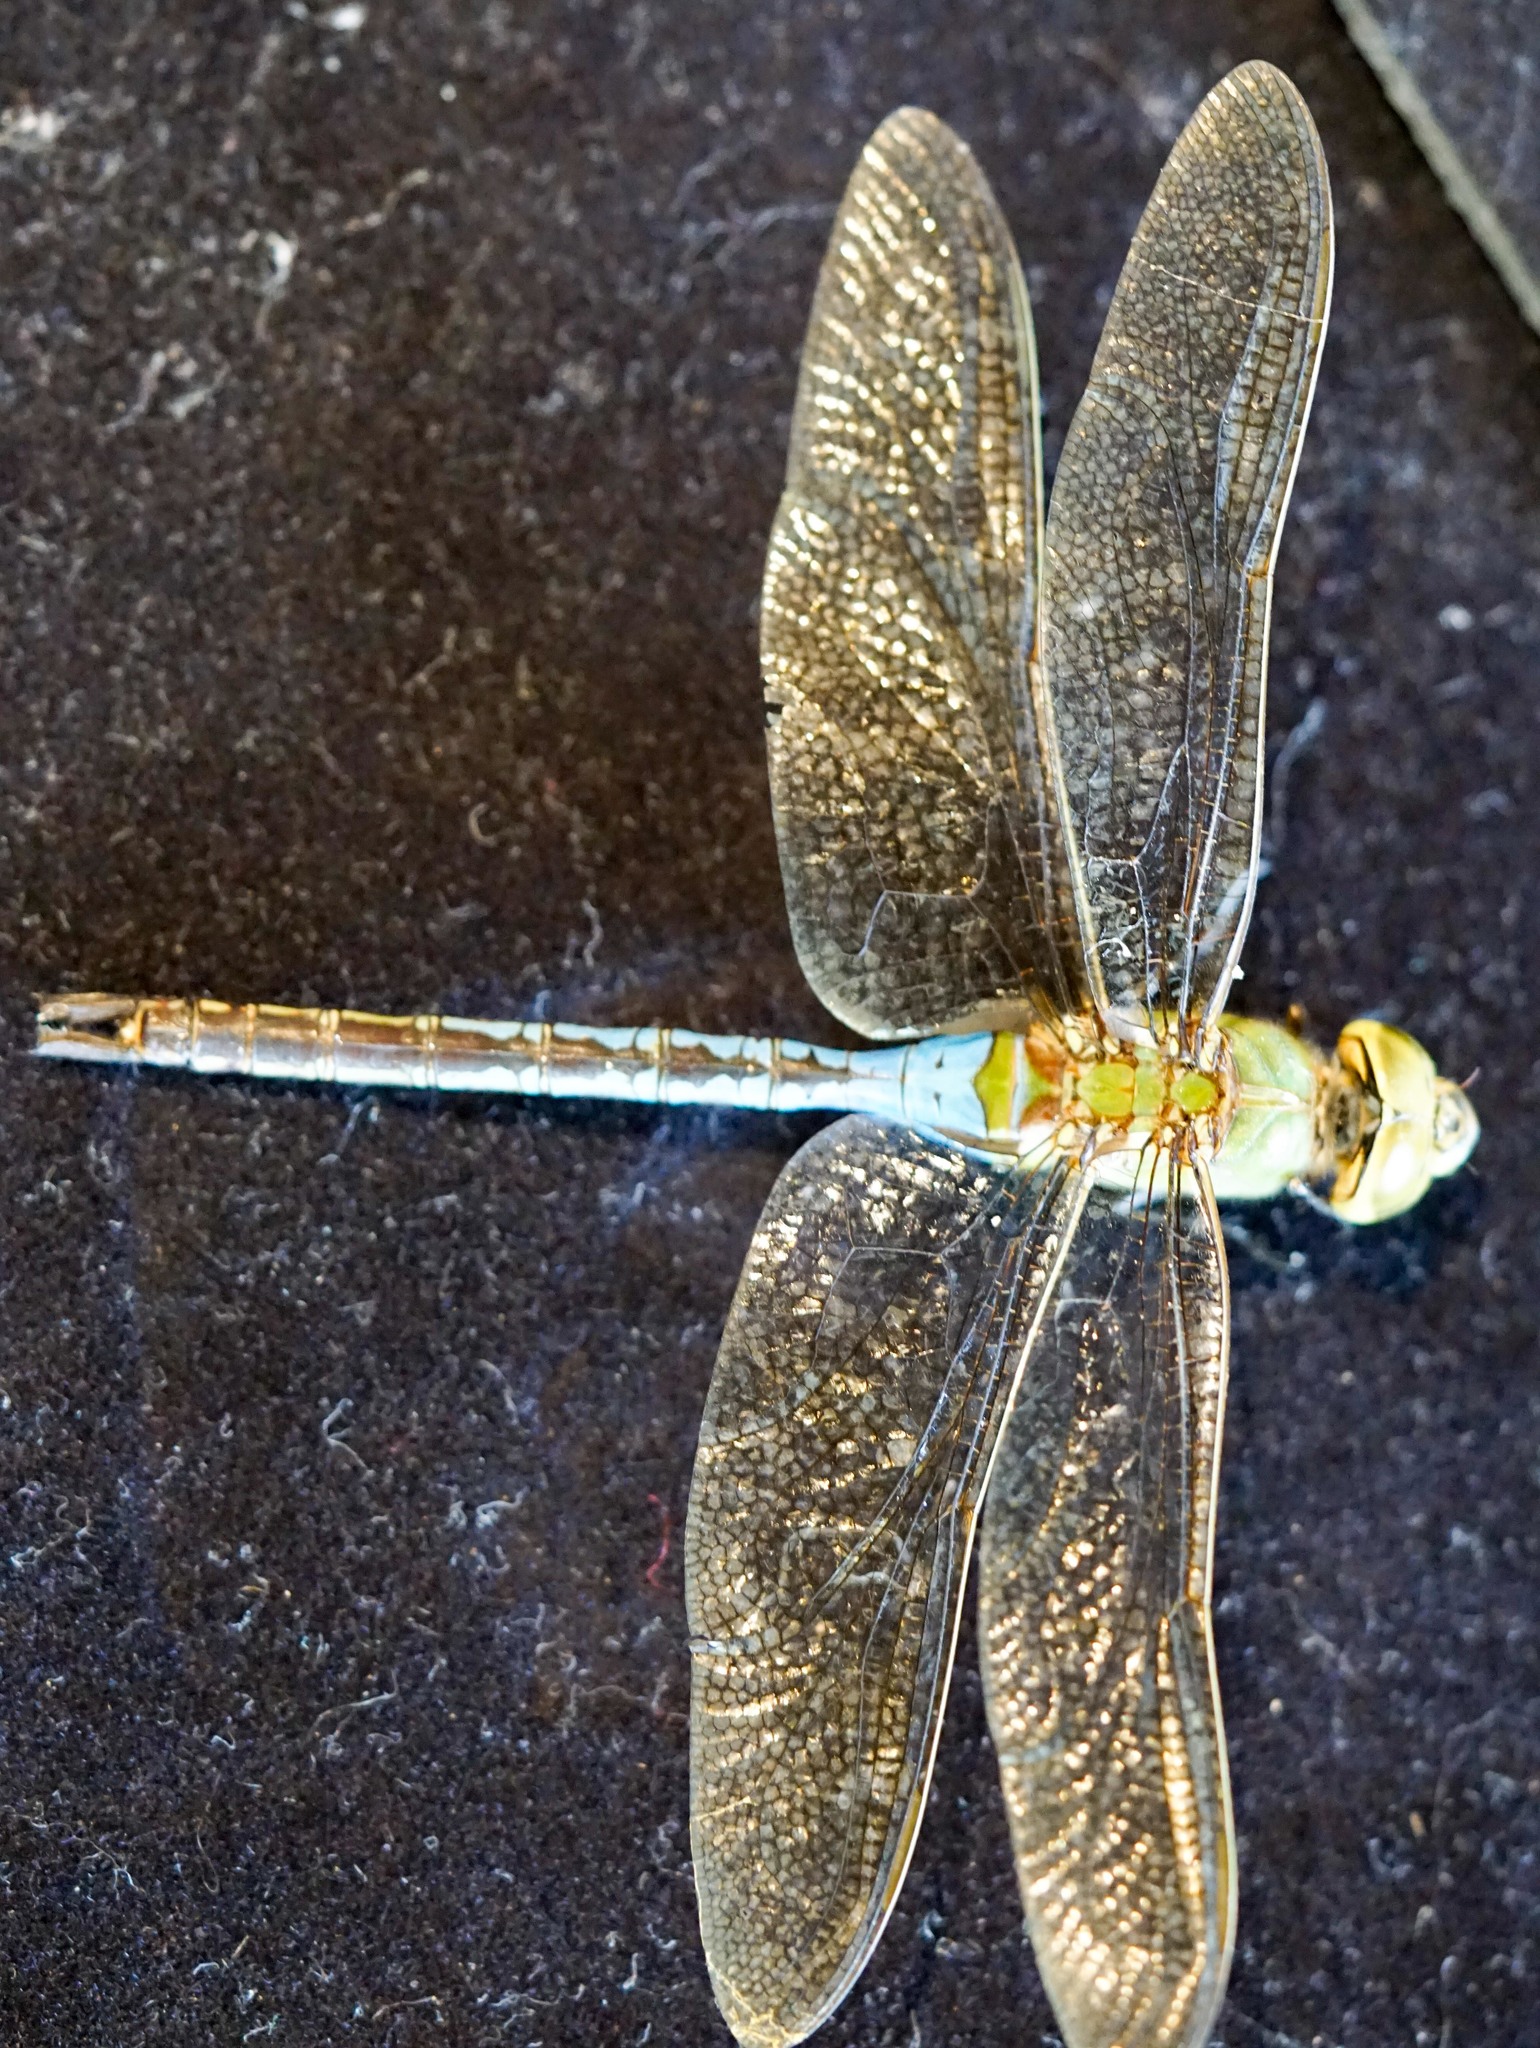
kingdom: Animalia
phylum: Arthropoda
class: Insecta
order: Odonata
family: Aeshnidae
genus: Anax
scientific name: Anax junius
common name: Common green darner
